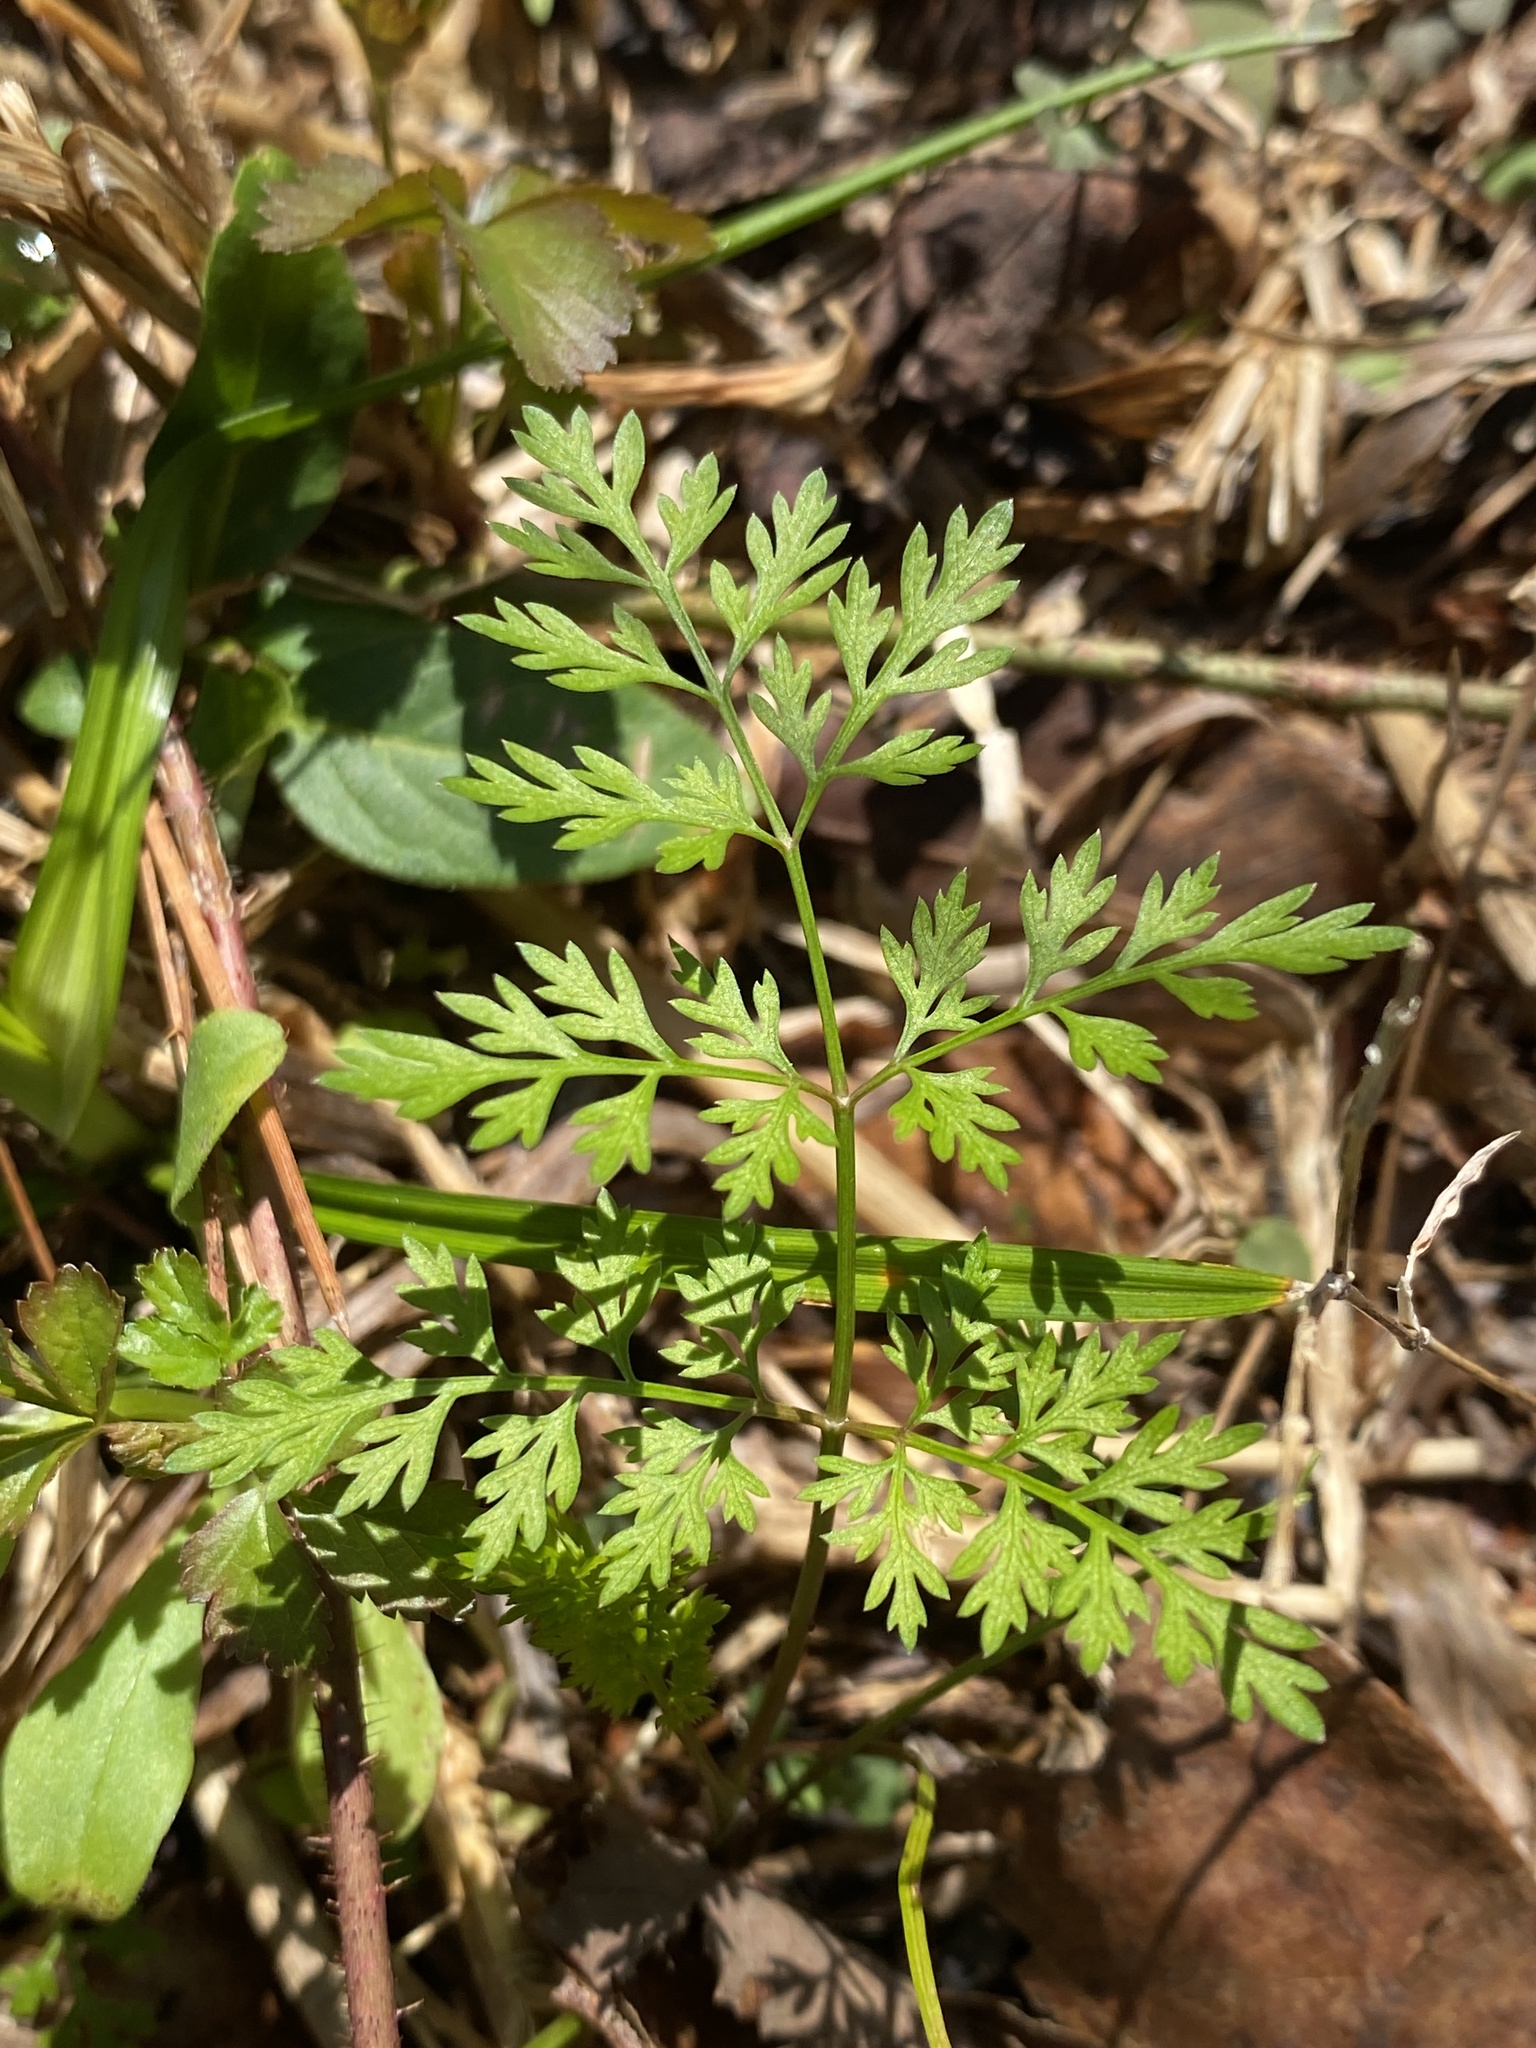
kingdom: Plantae
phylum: Tracheophyta
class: Magnoliopsida
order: Apiales
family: Apiaceae
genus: Chaerophyllum
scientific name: Chaerophyllum tainturieri
